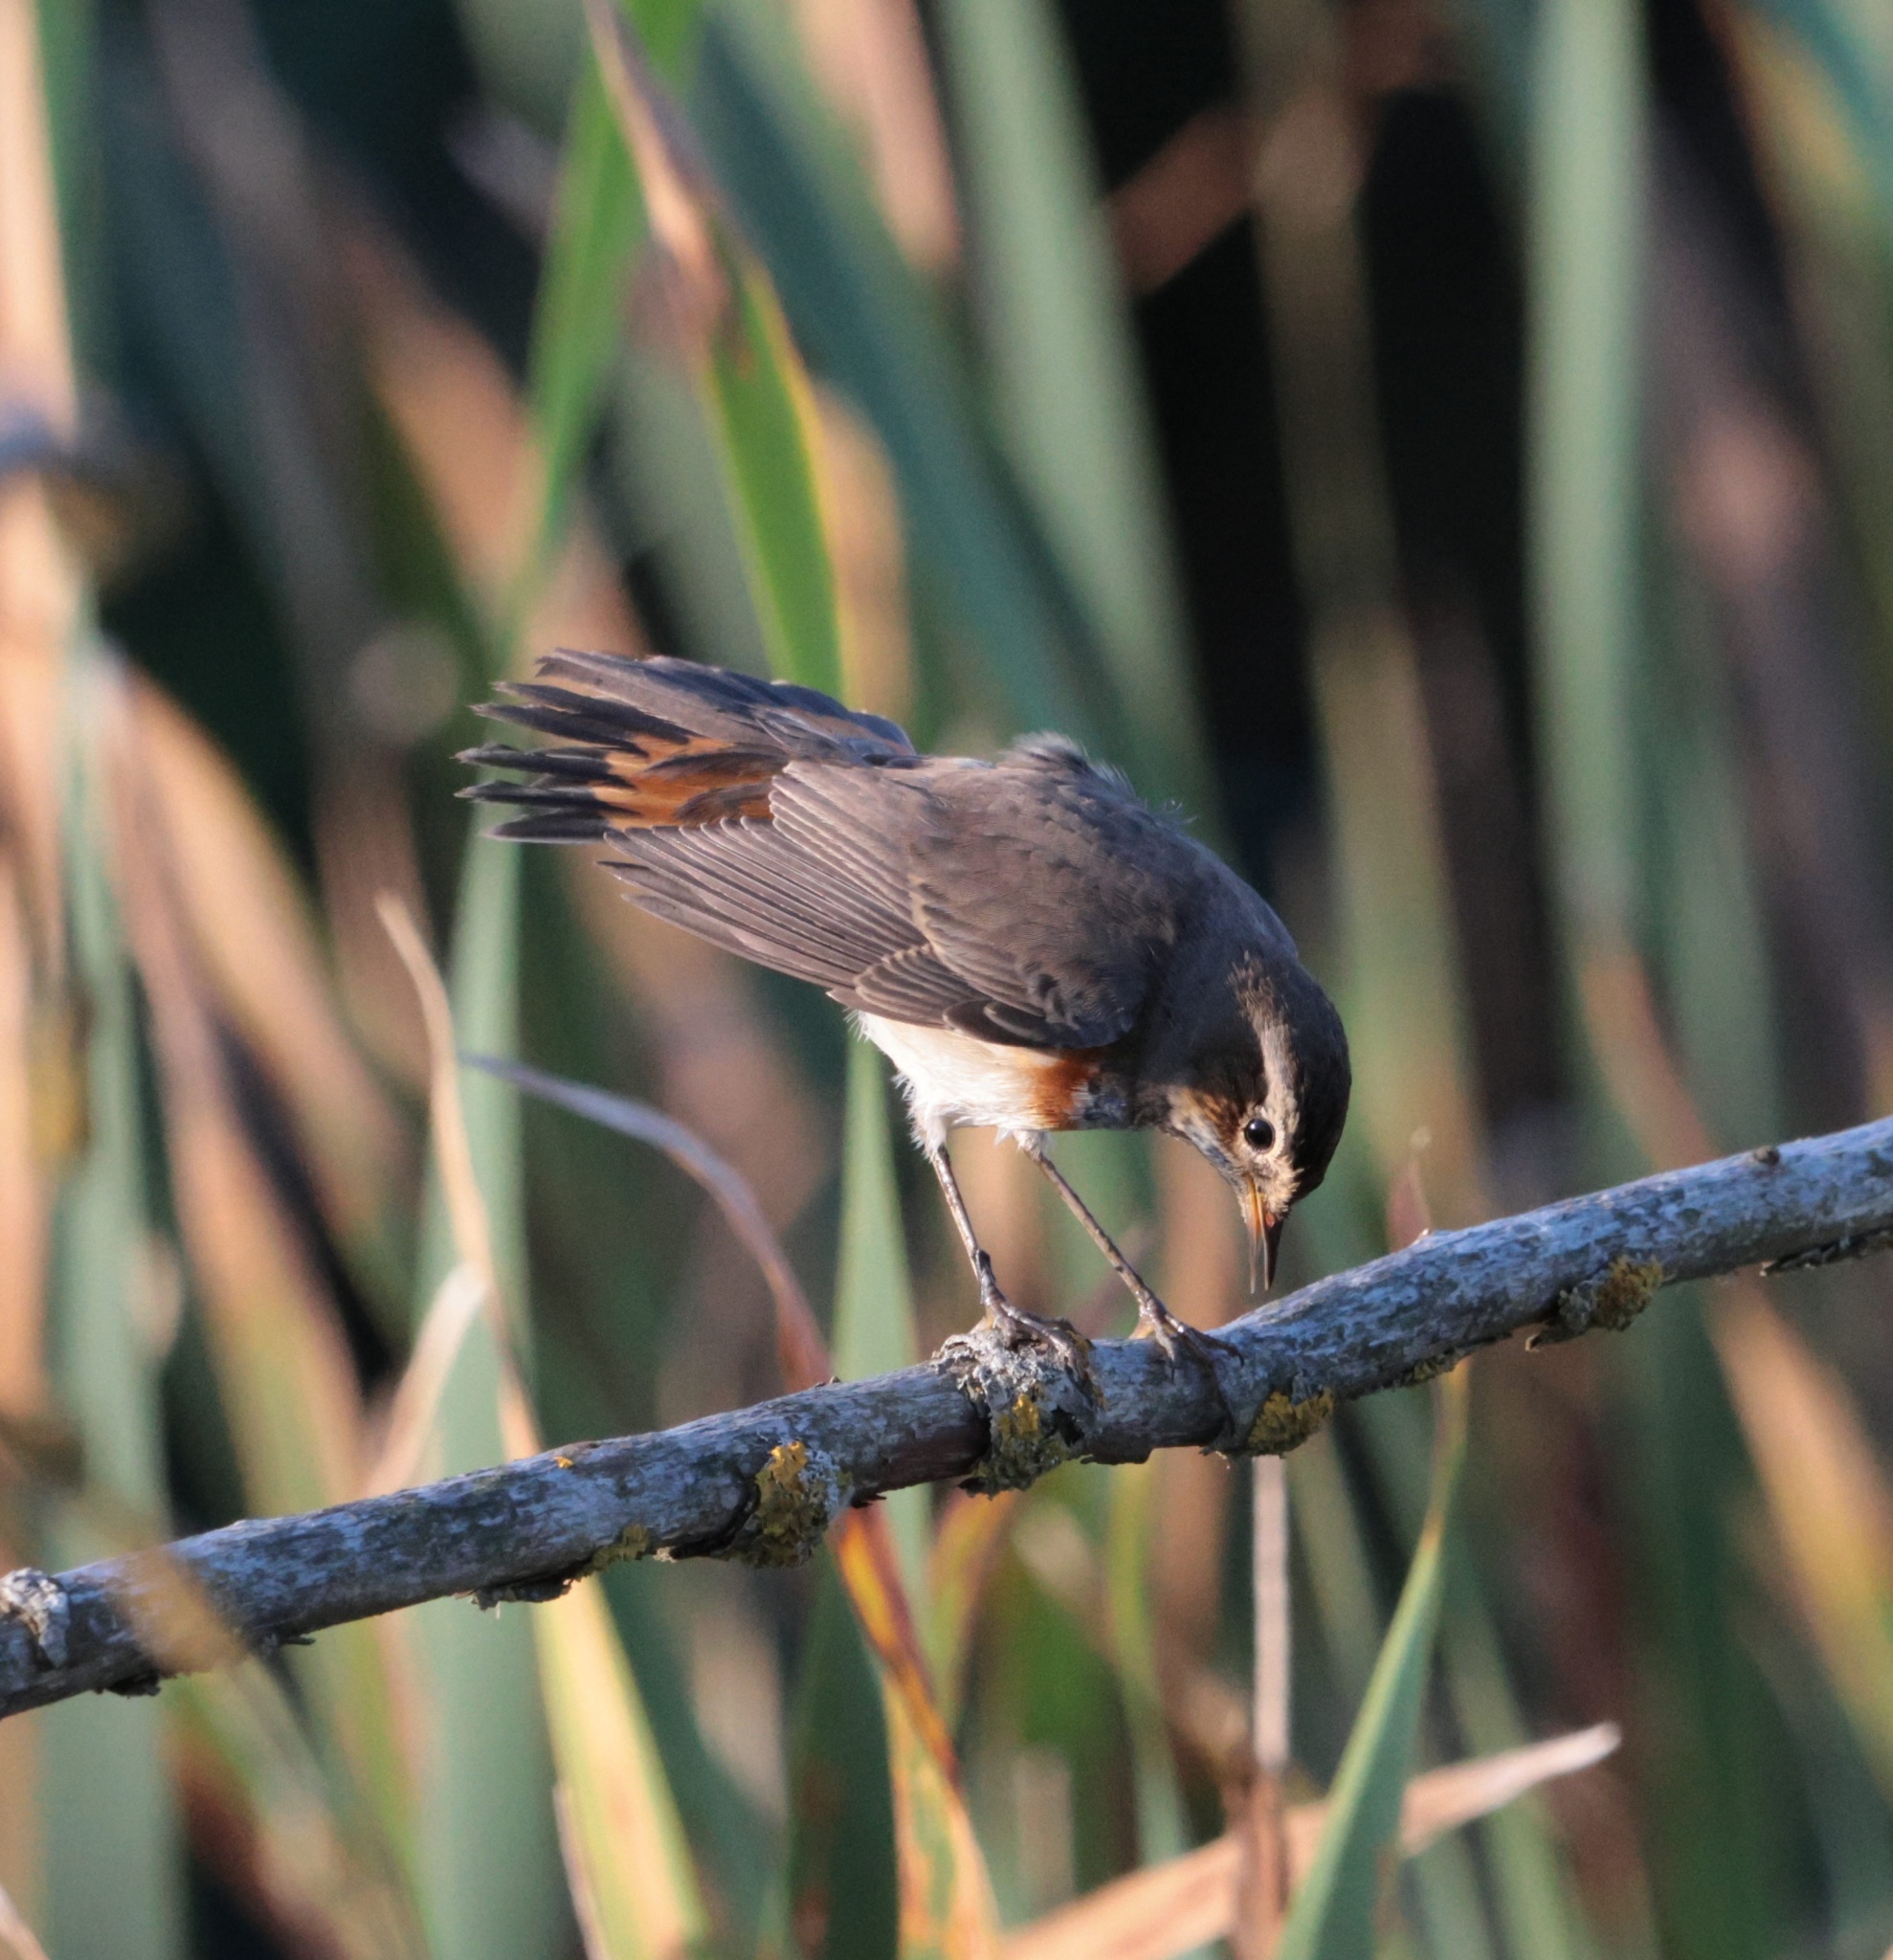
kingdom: Animalia
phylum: Chordata
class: Aves
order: Passeriformes
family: Muscicapidae
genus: Luscinia
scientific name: Luscinia svecica
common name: Bluethroat
